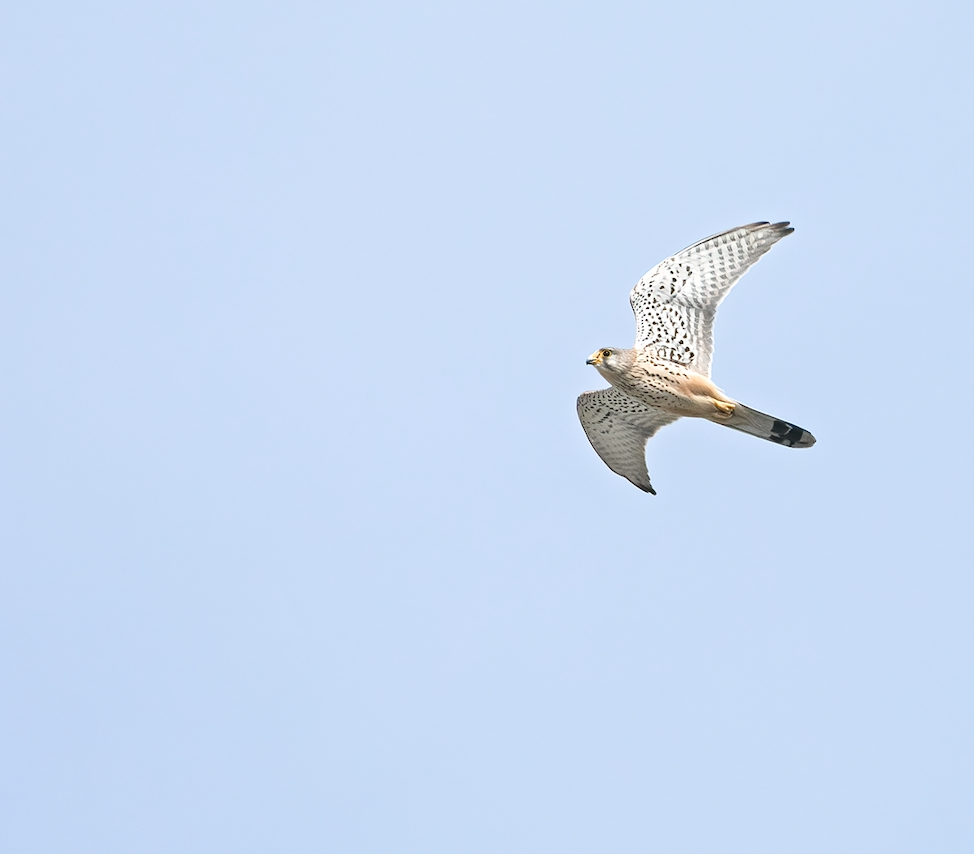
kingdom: Animalia
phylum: Chordata
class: Aves
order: Falconiformes
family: Falconidae
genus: Falco
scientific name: Falco tinnunculus
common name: Common kestrel
